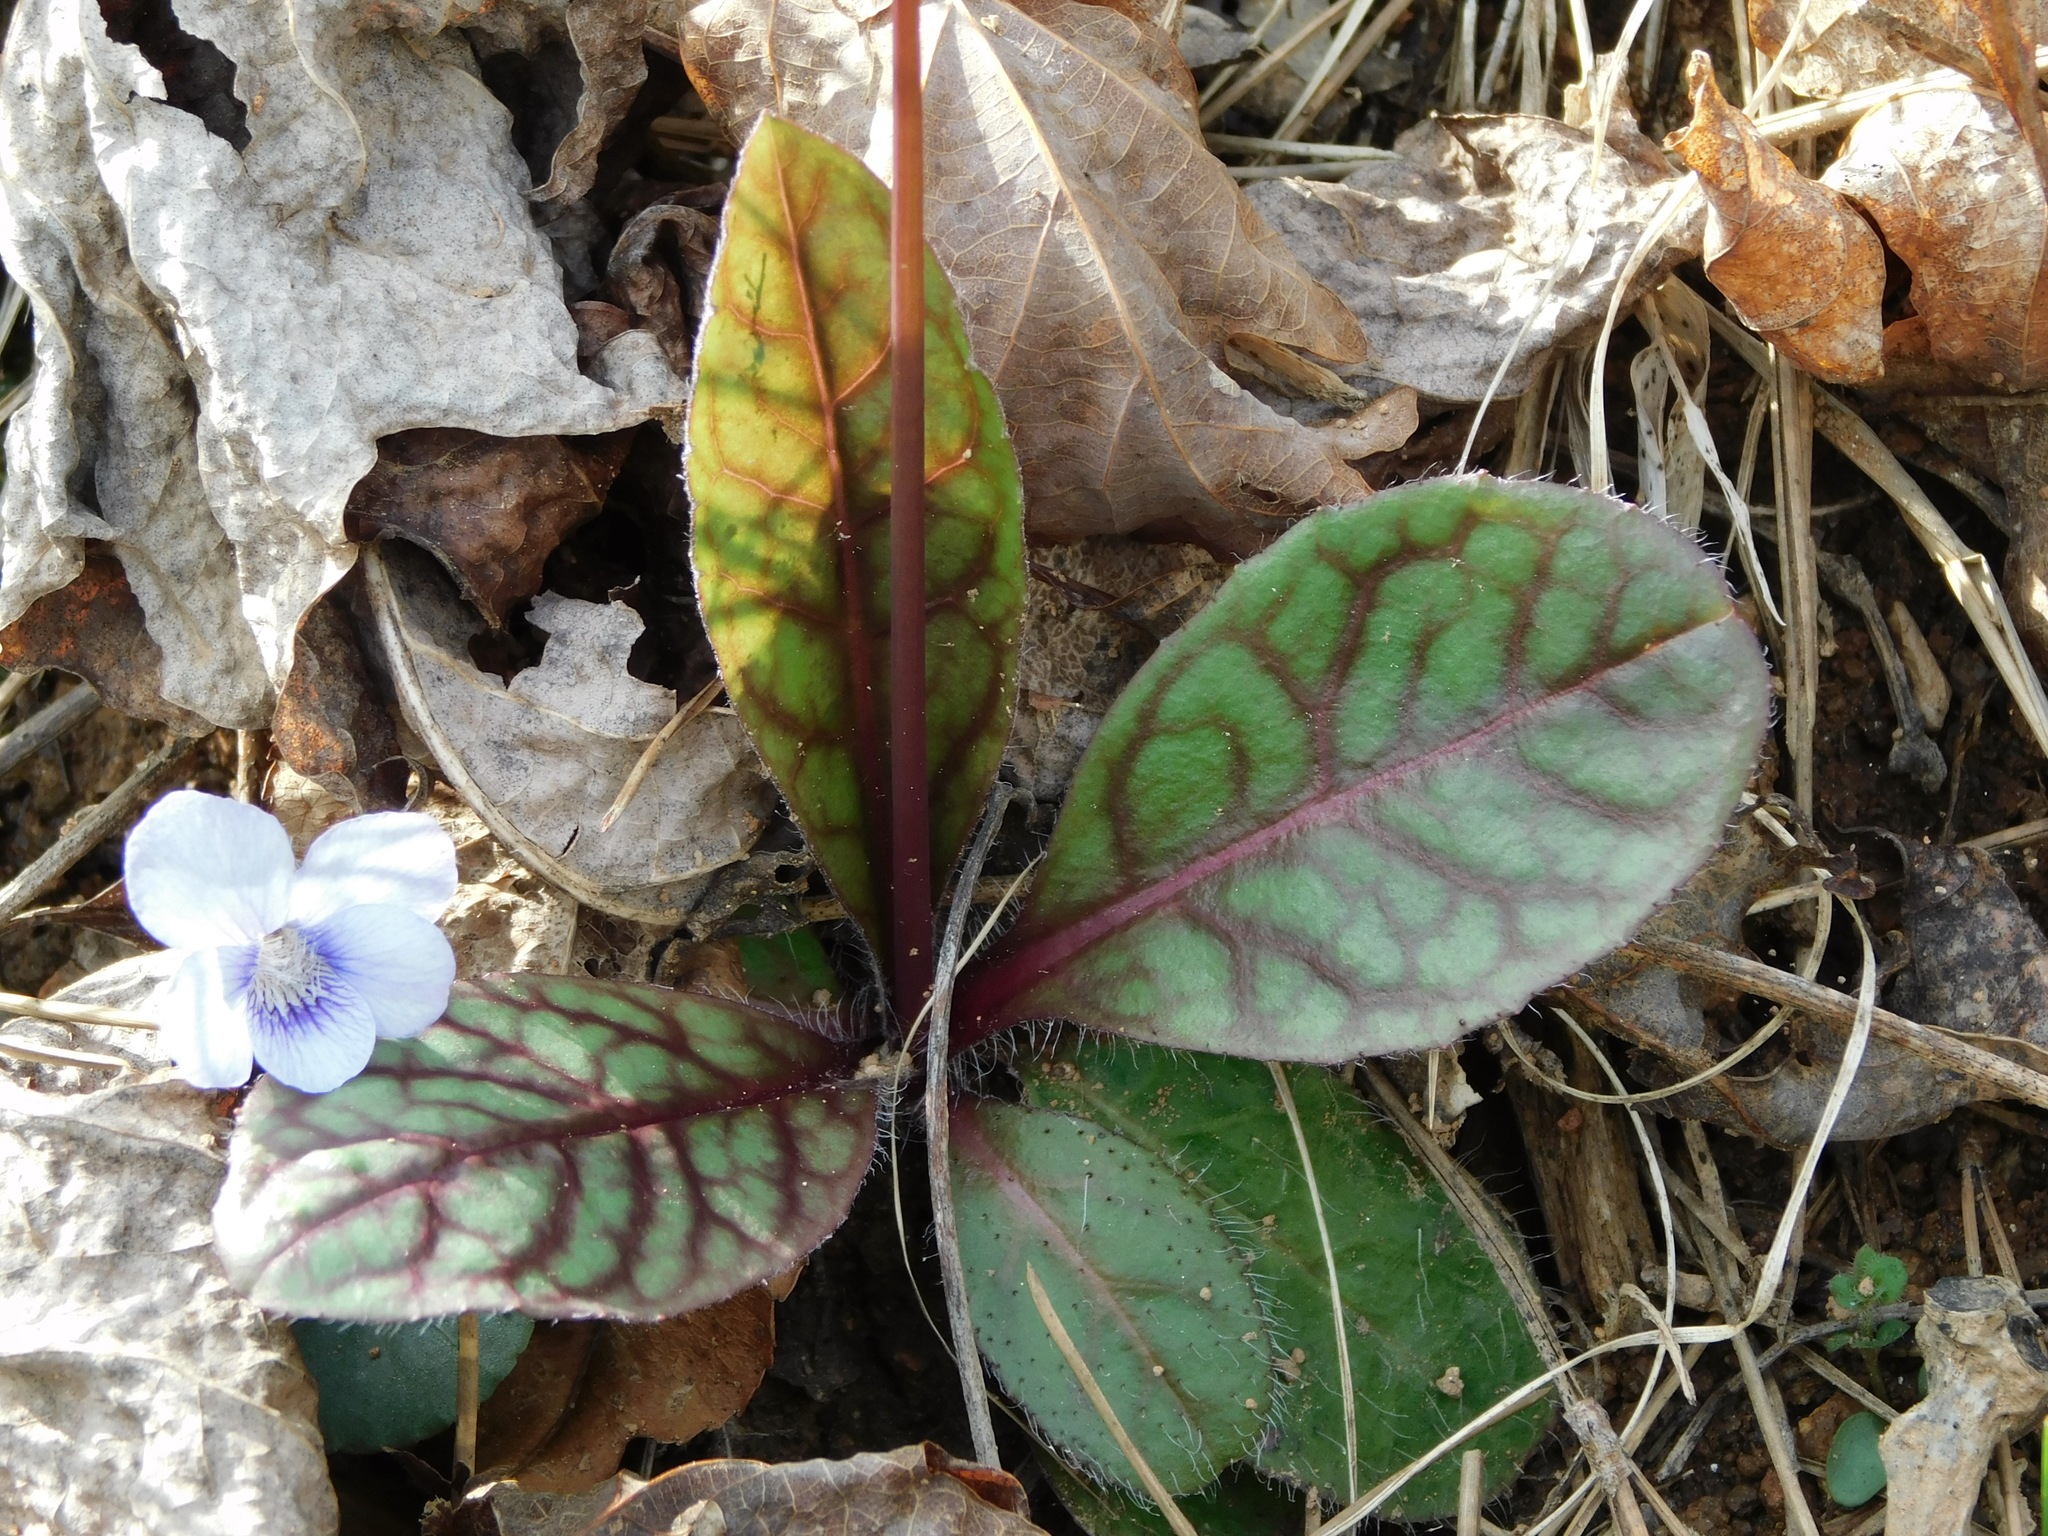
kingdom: Plantae
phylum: Tracheophyta
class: Magnoliopsida
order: Asterales
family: Asteraceae
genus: Hieracium
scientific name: Hieracium venosum
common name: Rattlesnake hawkweed
